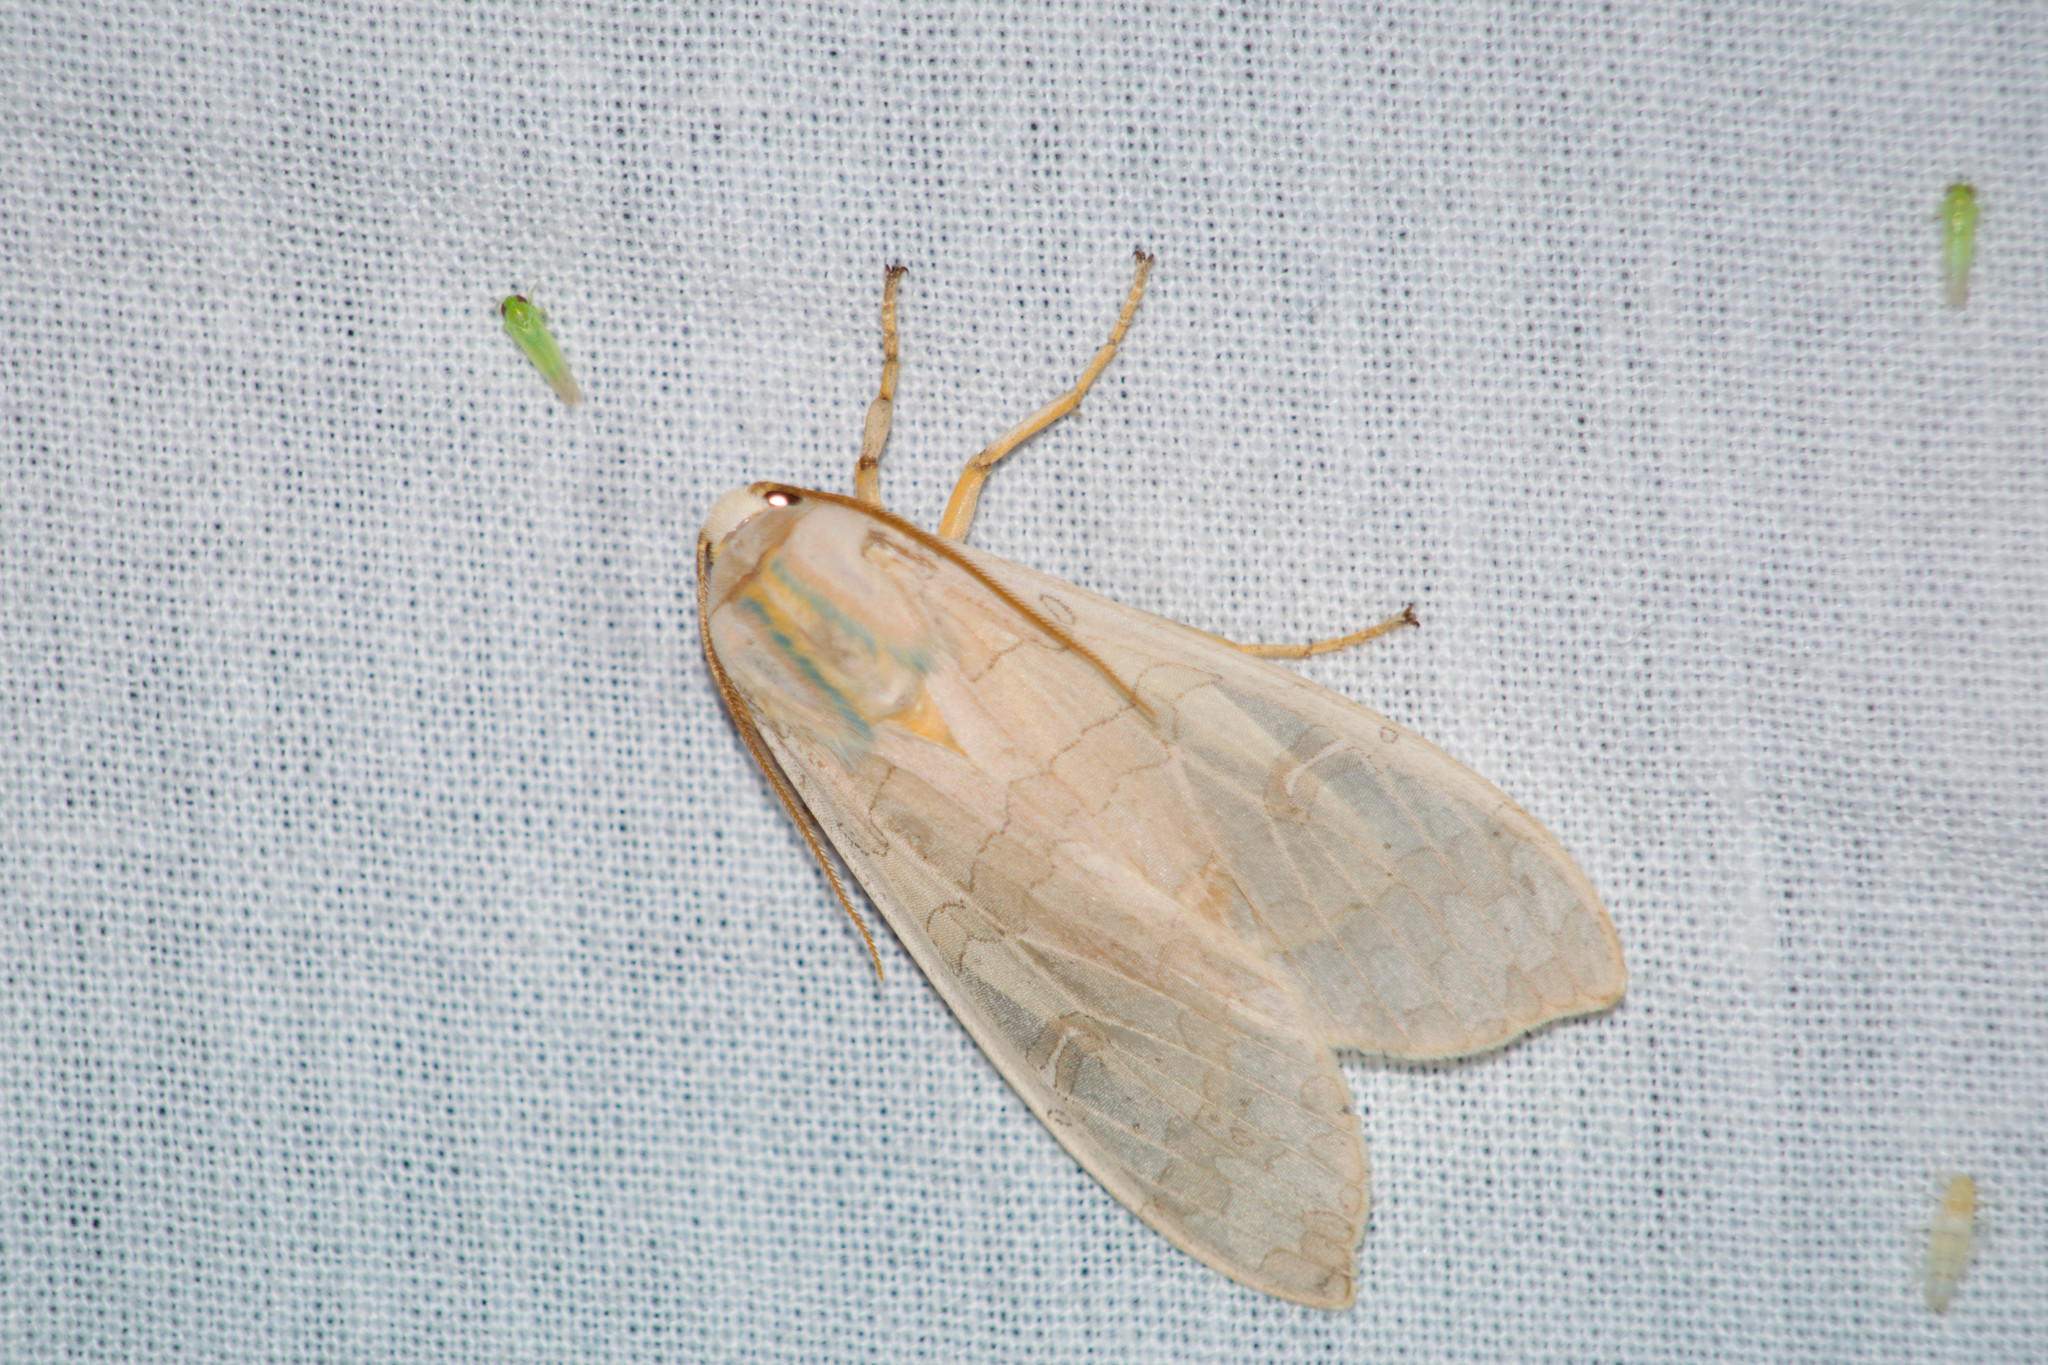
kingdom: Animalia
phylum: Arthropoda
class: Insecta
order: Lepidoptera
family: Erebidae
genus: Halysidota
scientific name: Halysidota
